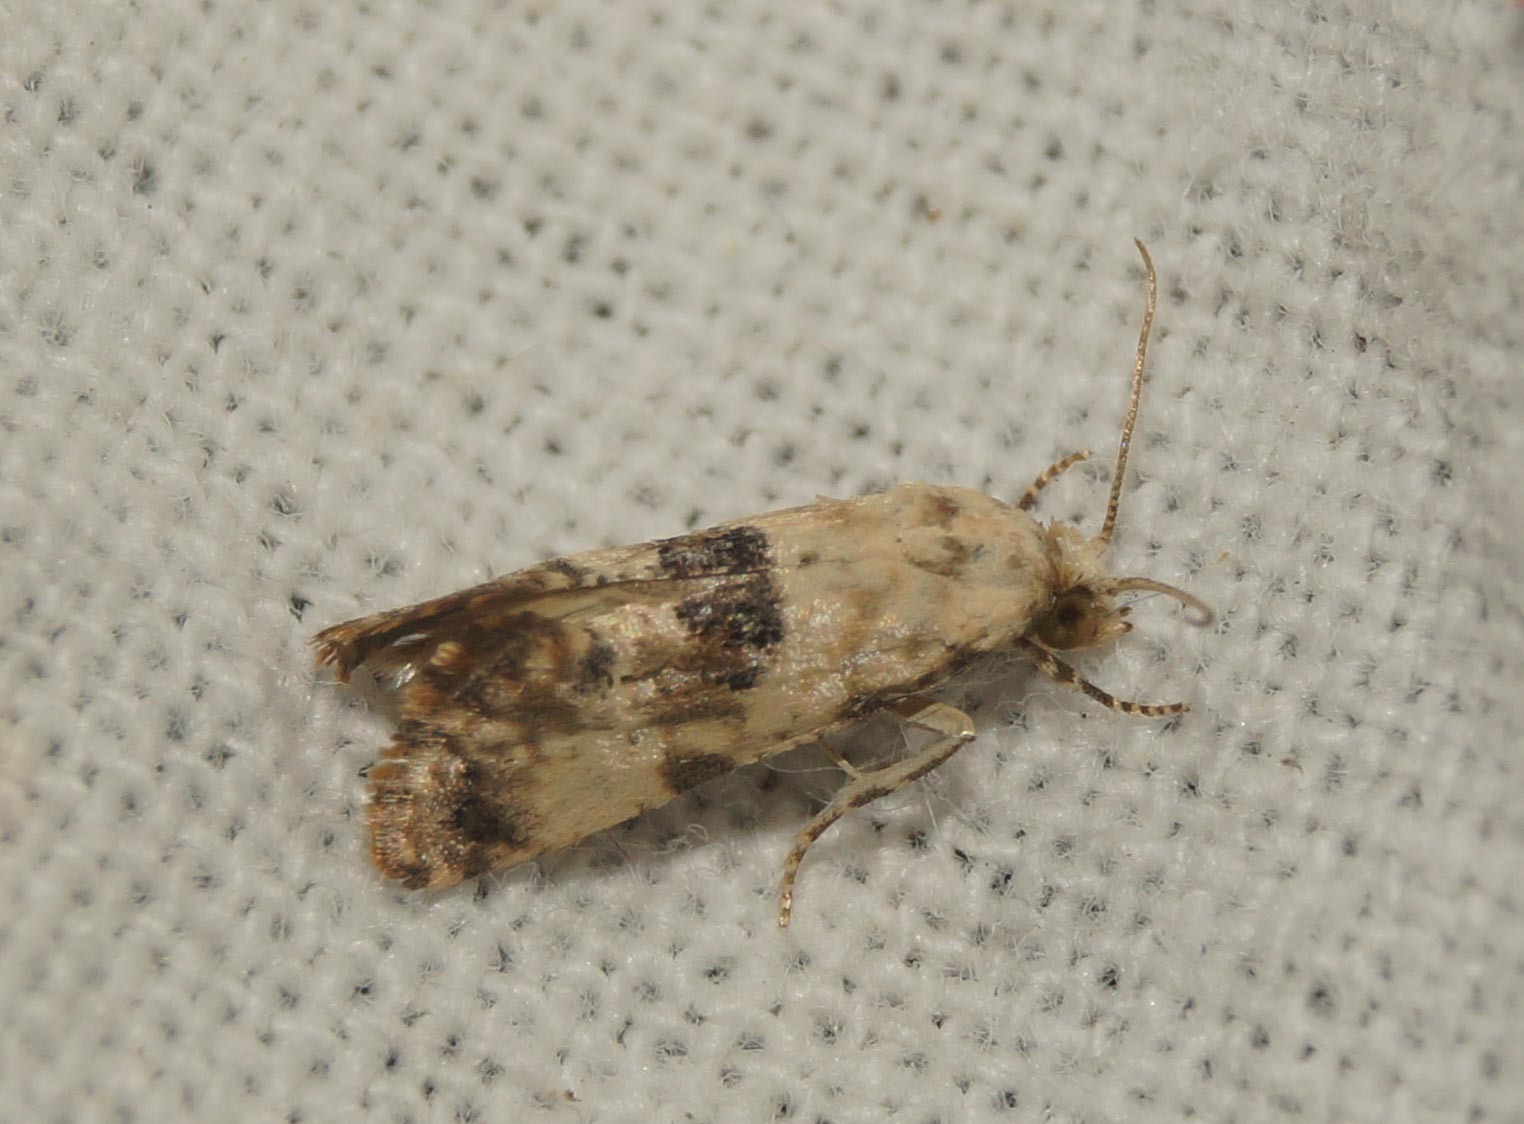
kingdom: Animalia
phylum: Arthropoda
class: Insecta
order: Lepidoptera
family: Tortricidae
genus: Cochylis
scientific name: Cochylis Pontoturania posterana
